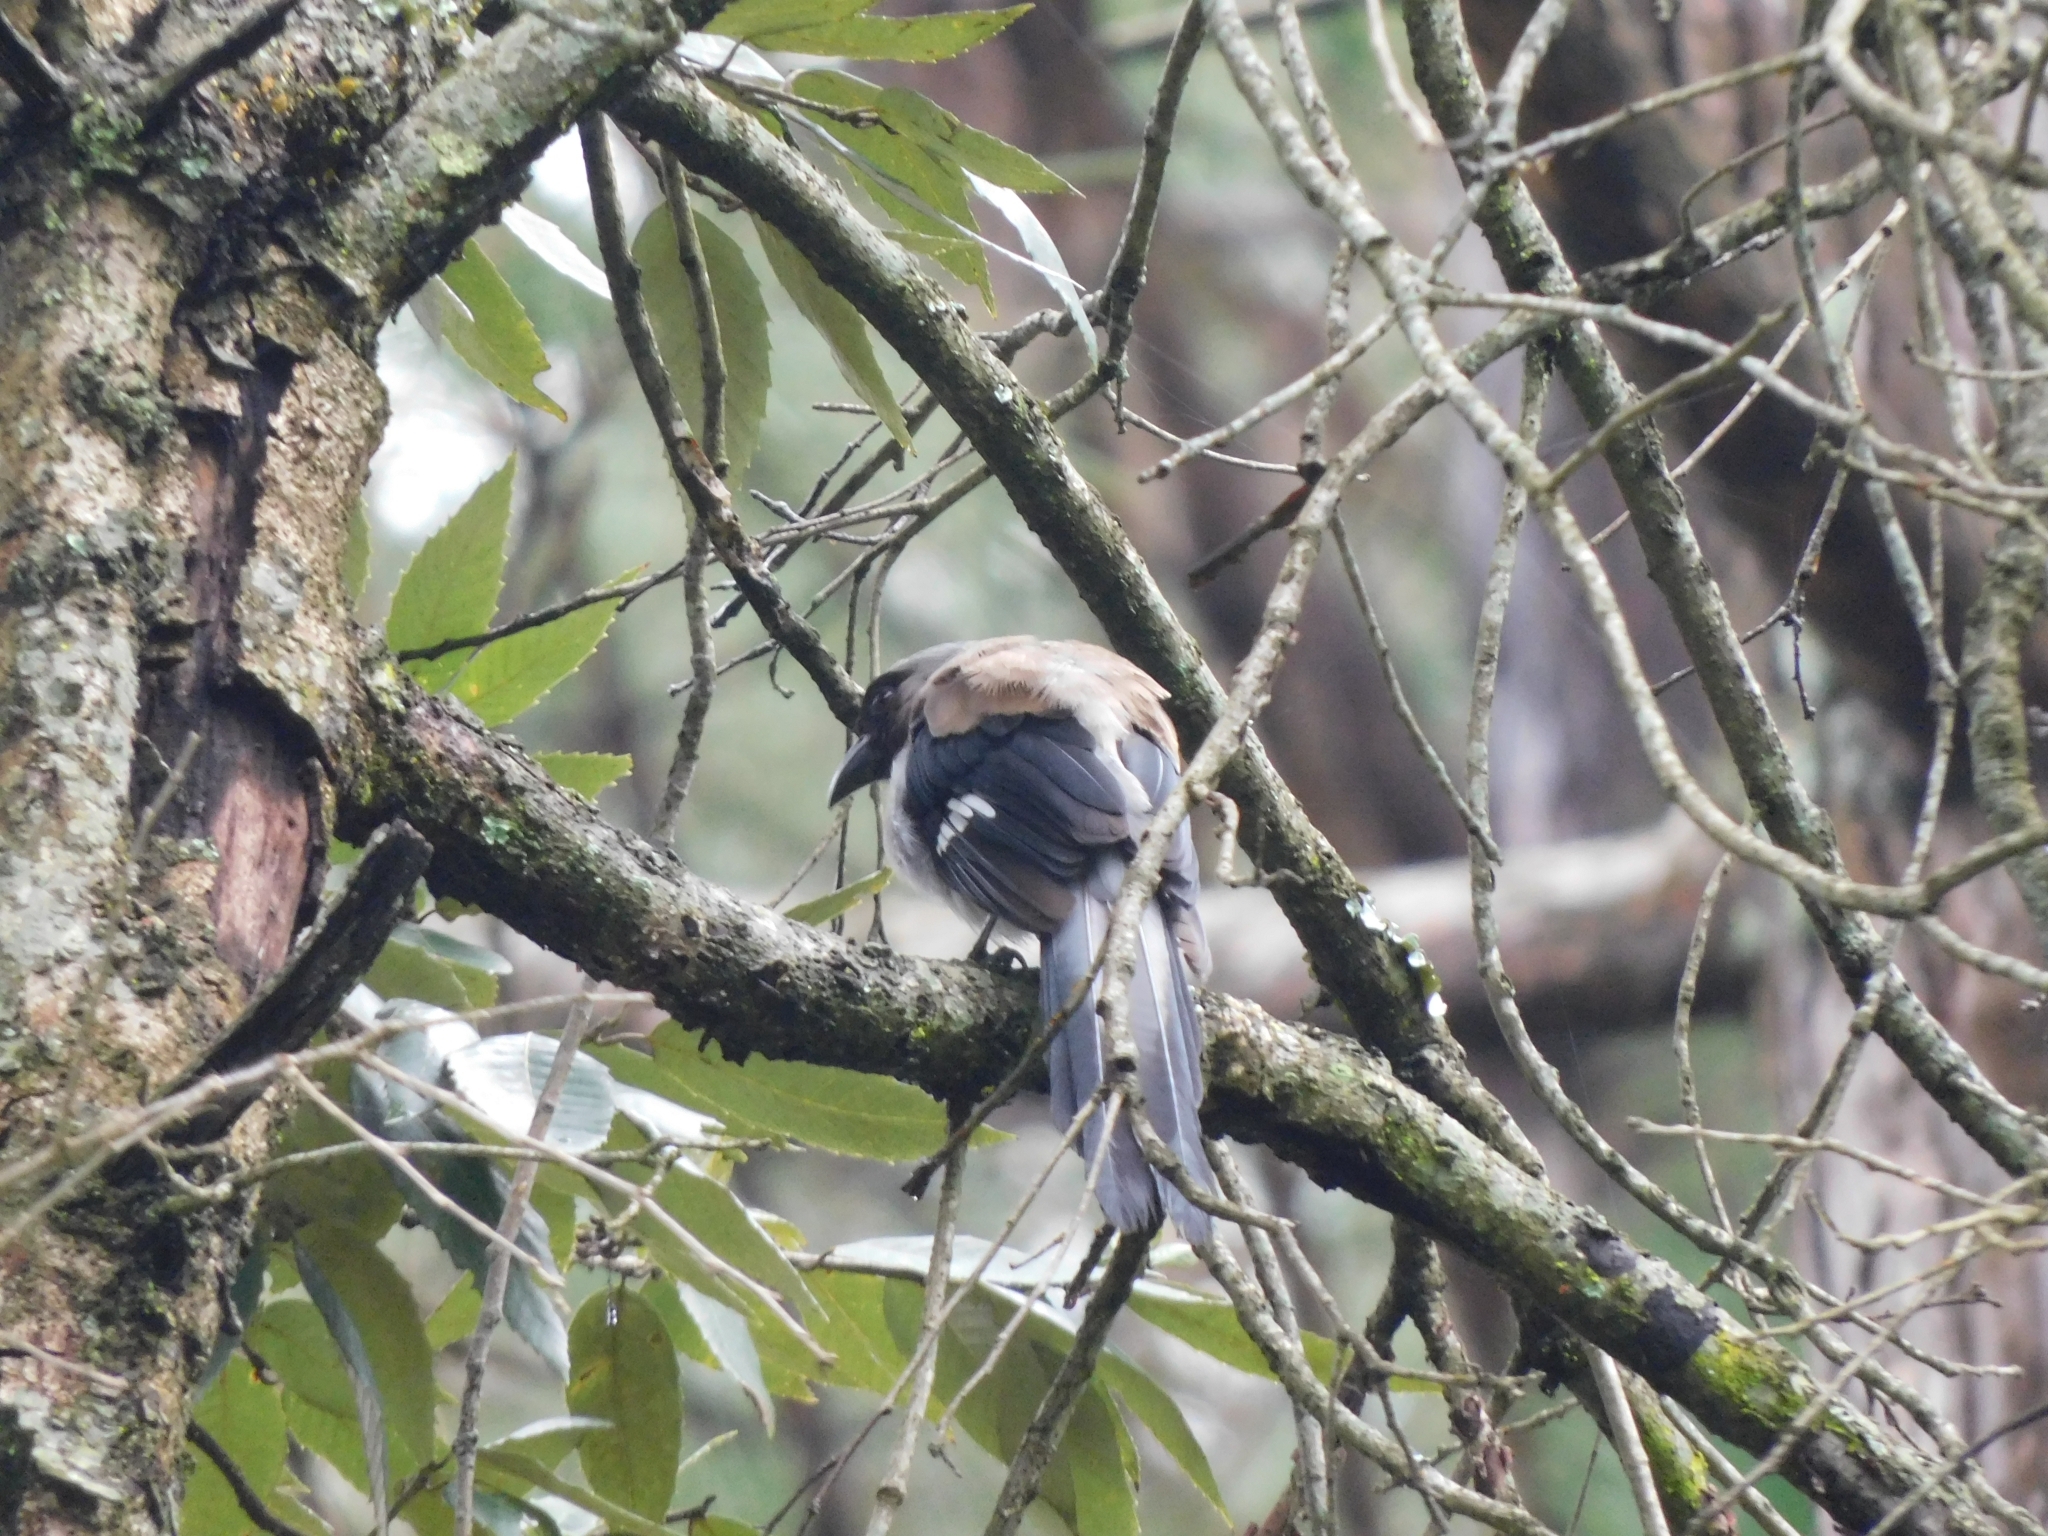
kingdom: Animalia
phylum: Chordata
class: Aves
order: Passeriformes
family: Corvidae
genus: Dendrocitta
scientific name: Dendrocitta formosae
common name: Grey treepie
